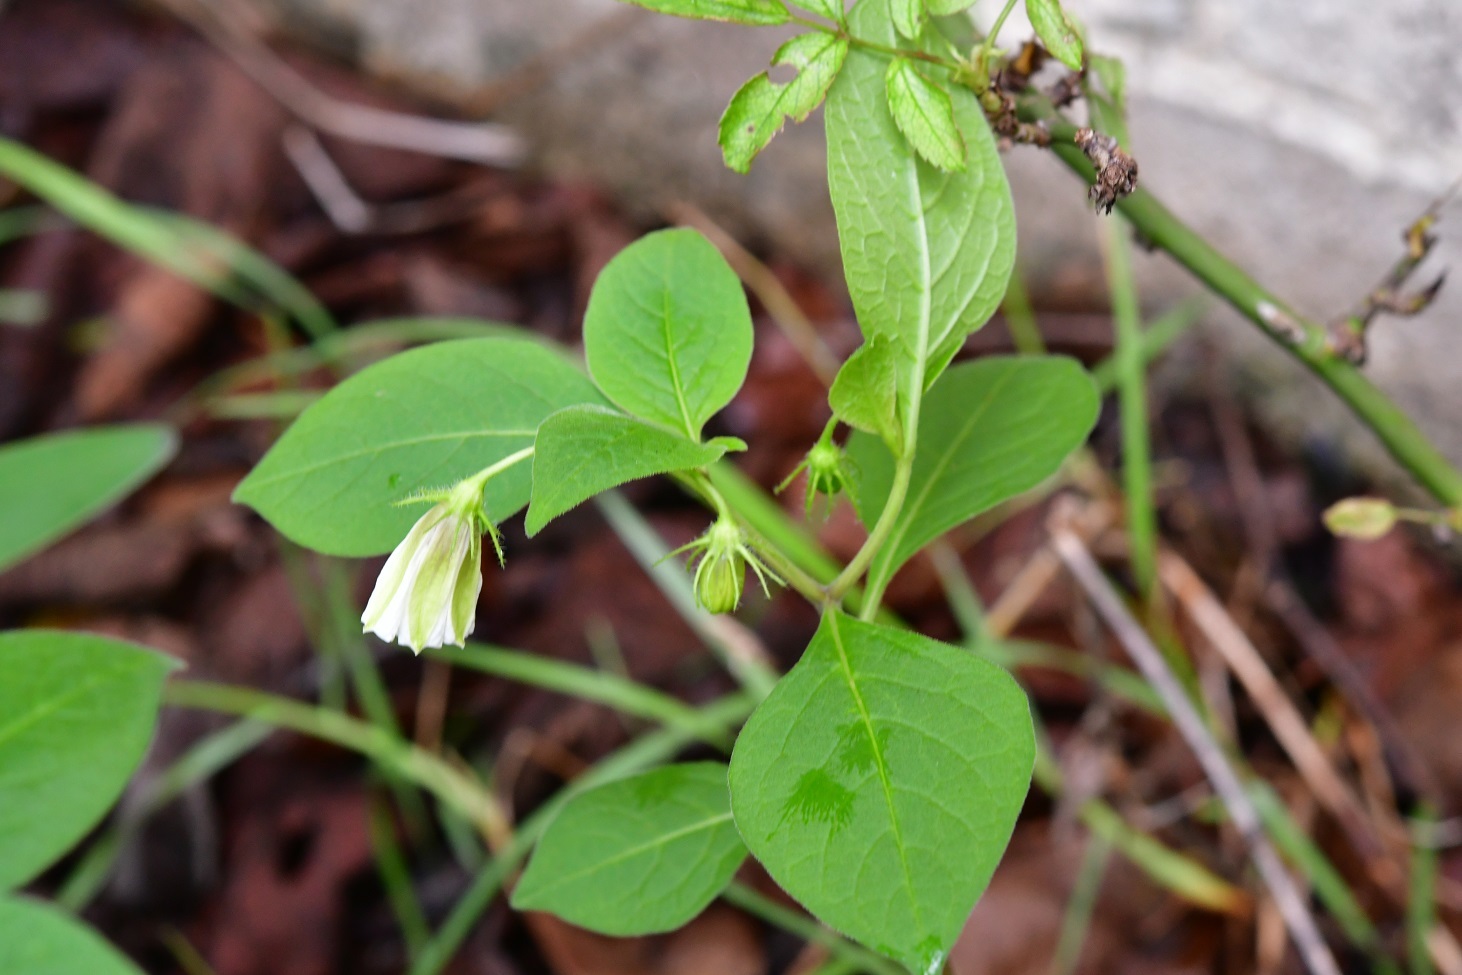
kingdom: Plantae
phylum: Tracheophyta
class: Magnoliopsida
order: Solanales
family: Solanaceae
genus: Lycianthes
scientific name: Lycianthes ciliolata
